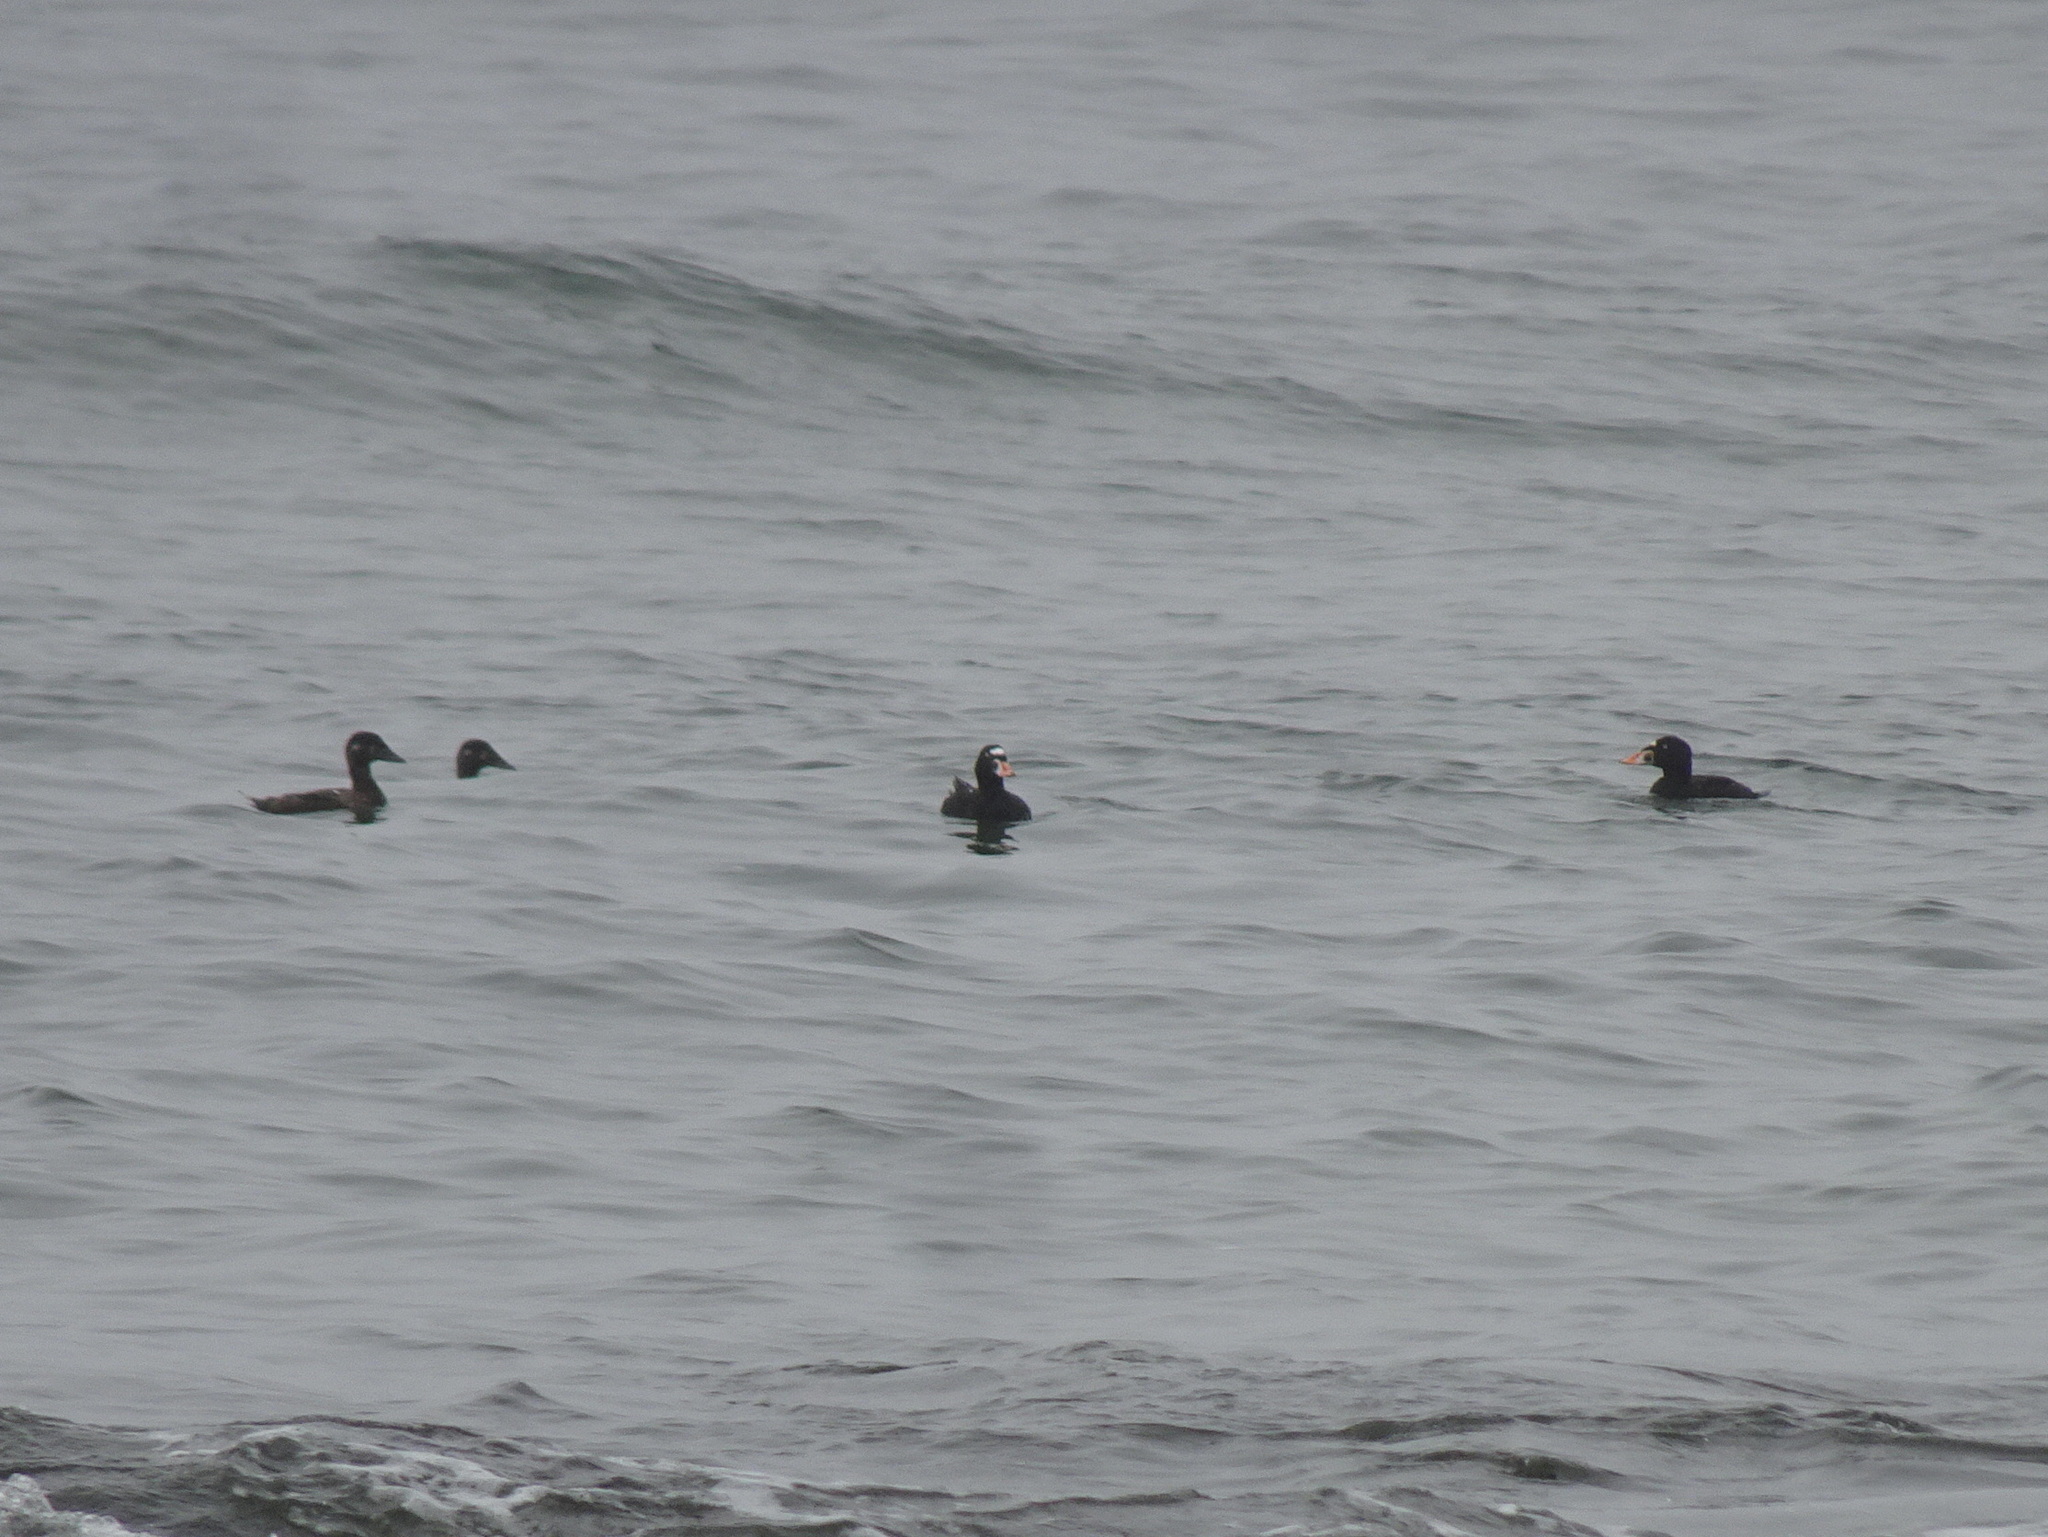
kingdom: Animalia
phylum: Chordata
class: Aves
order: Anseriformes
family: Anatidae
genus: Melanitta
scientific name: Melanitta perspicillata
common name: Surf scoter
